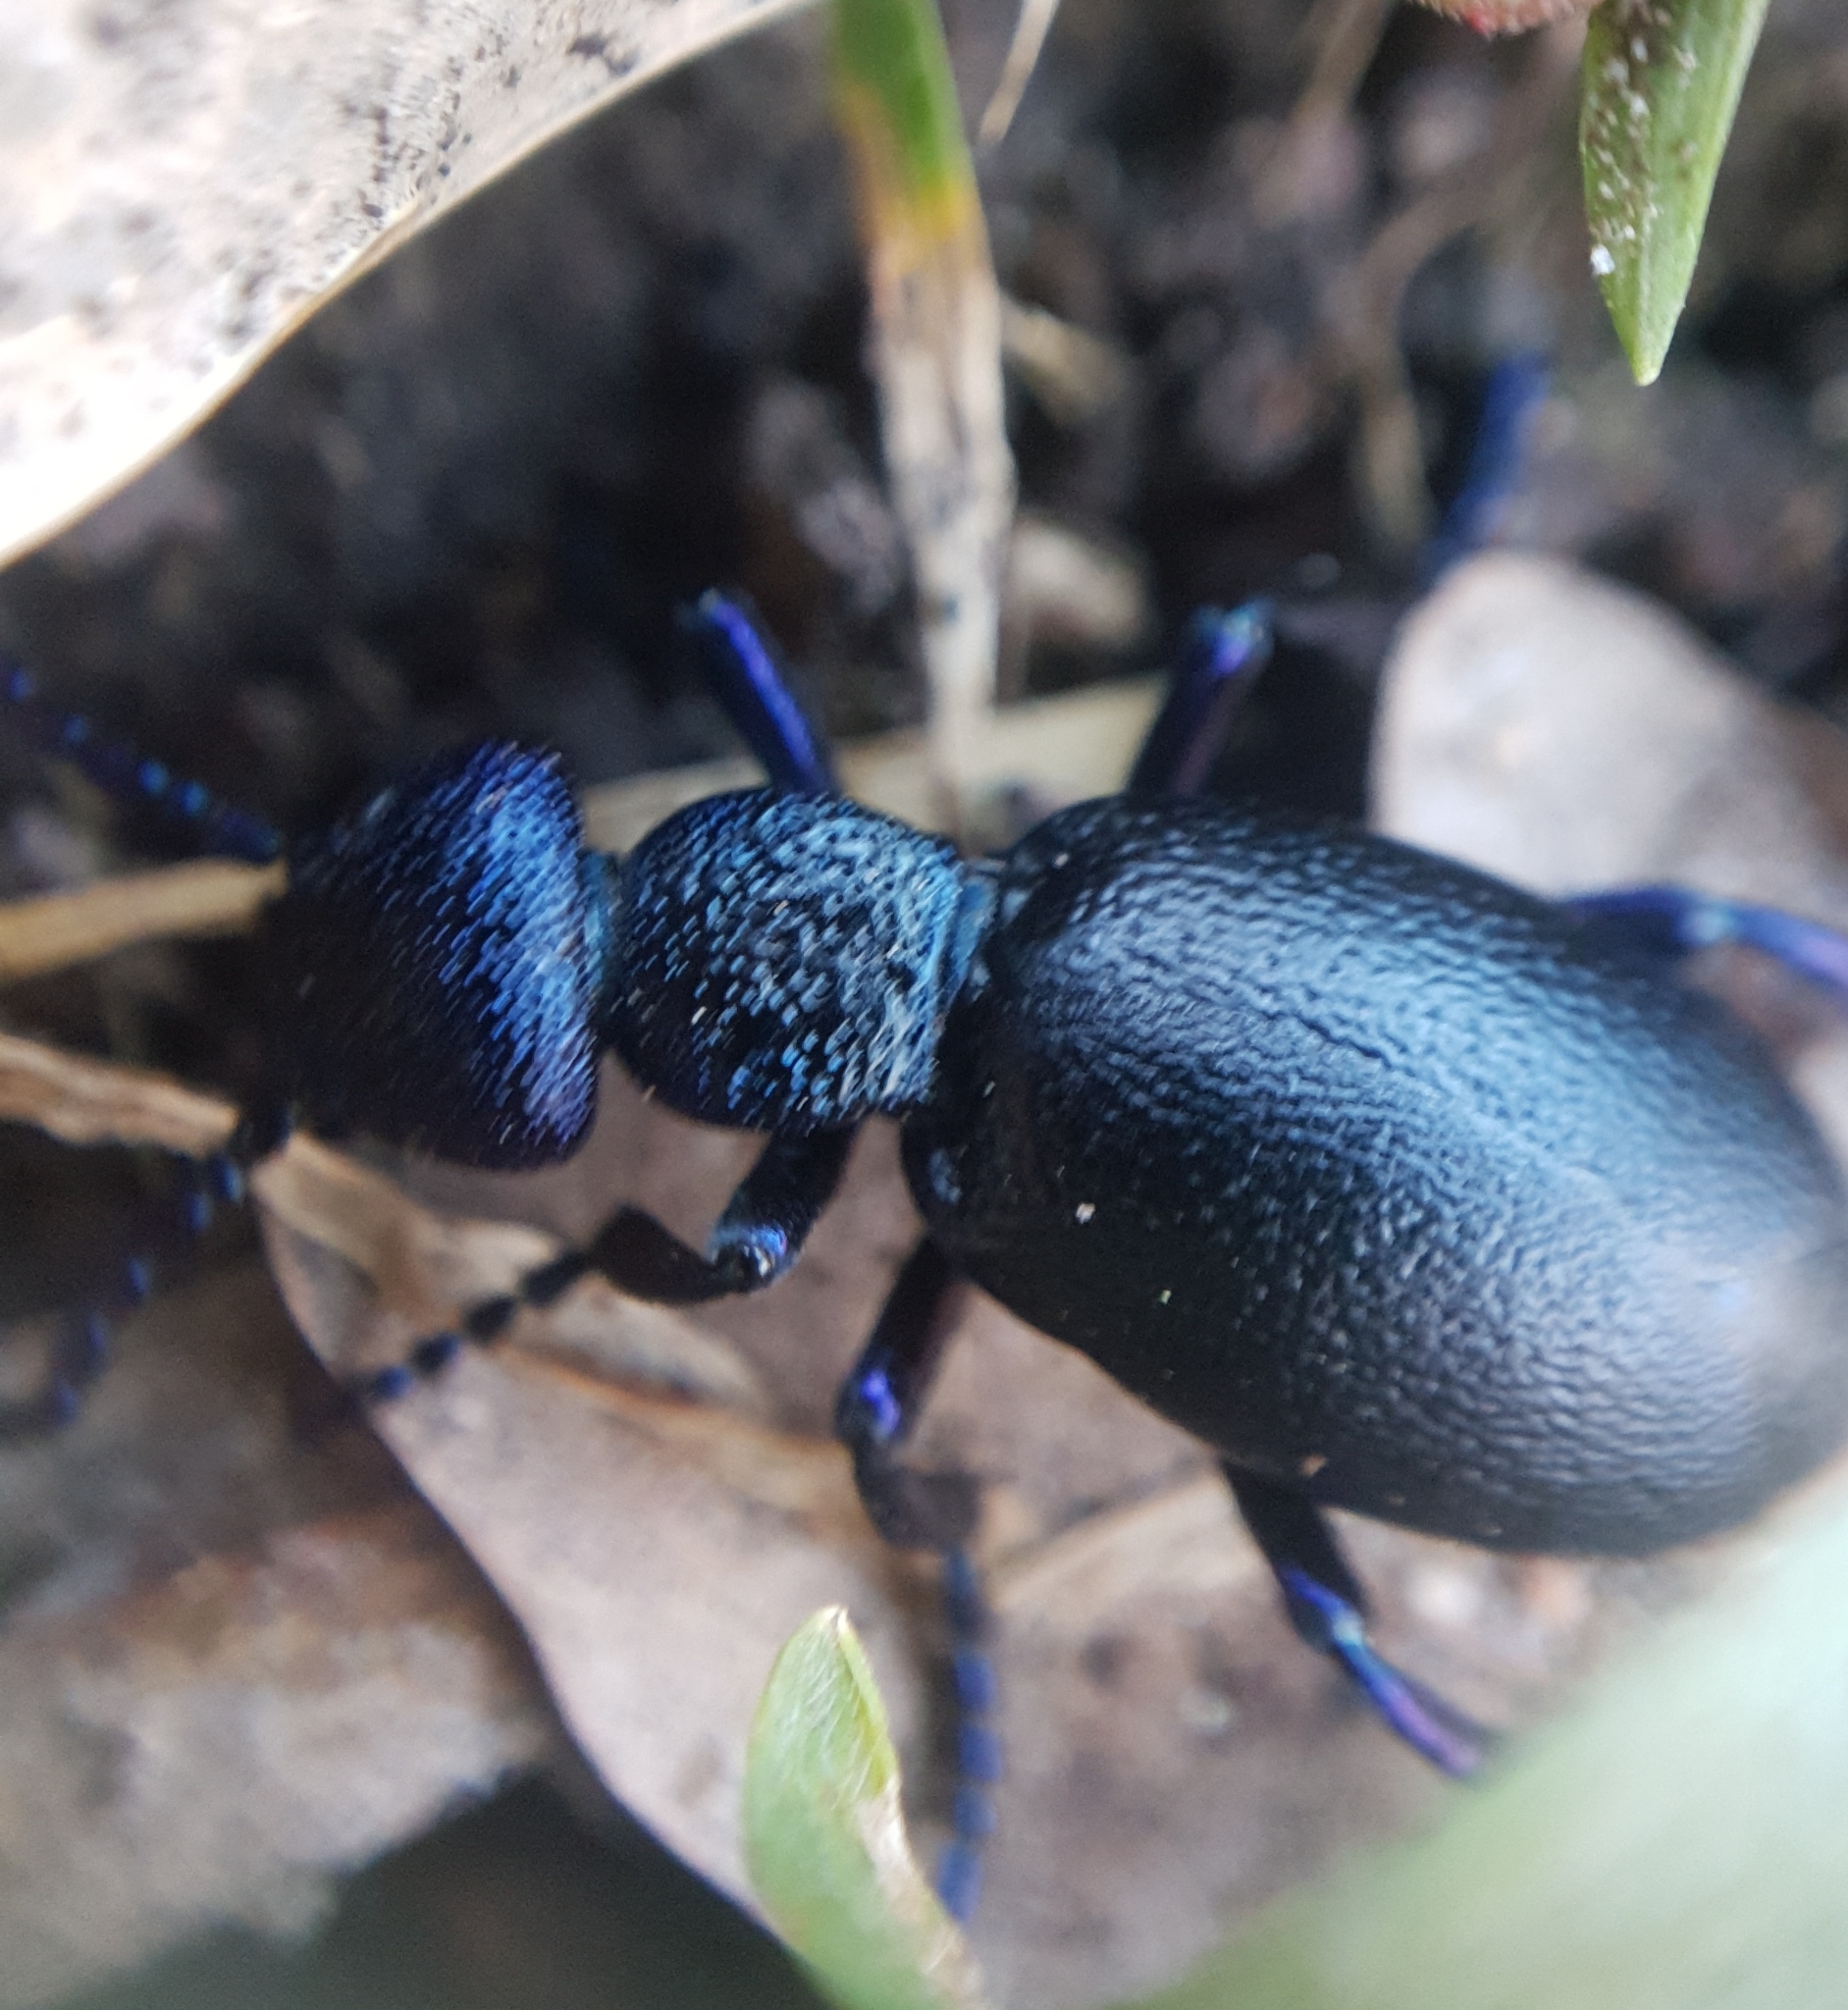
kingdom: Animalia
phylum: Arthropoda
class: Insecta
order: Coleoptera
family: Meloidae
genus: Meloe
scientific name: Meloe proscarabaeus
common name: Black oil-beetle
